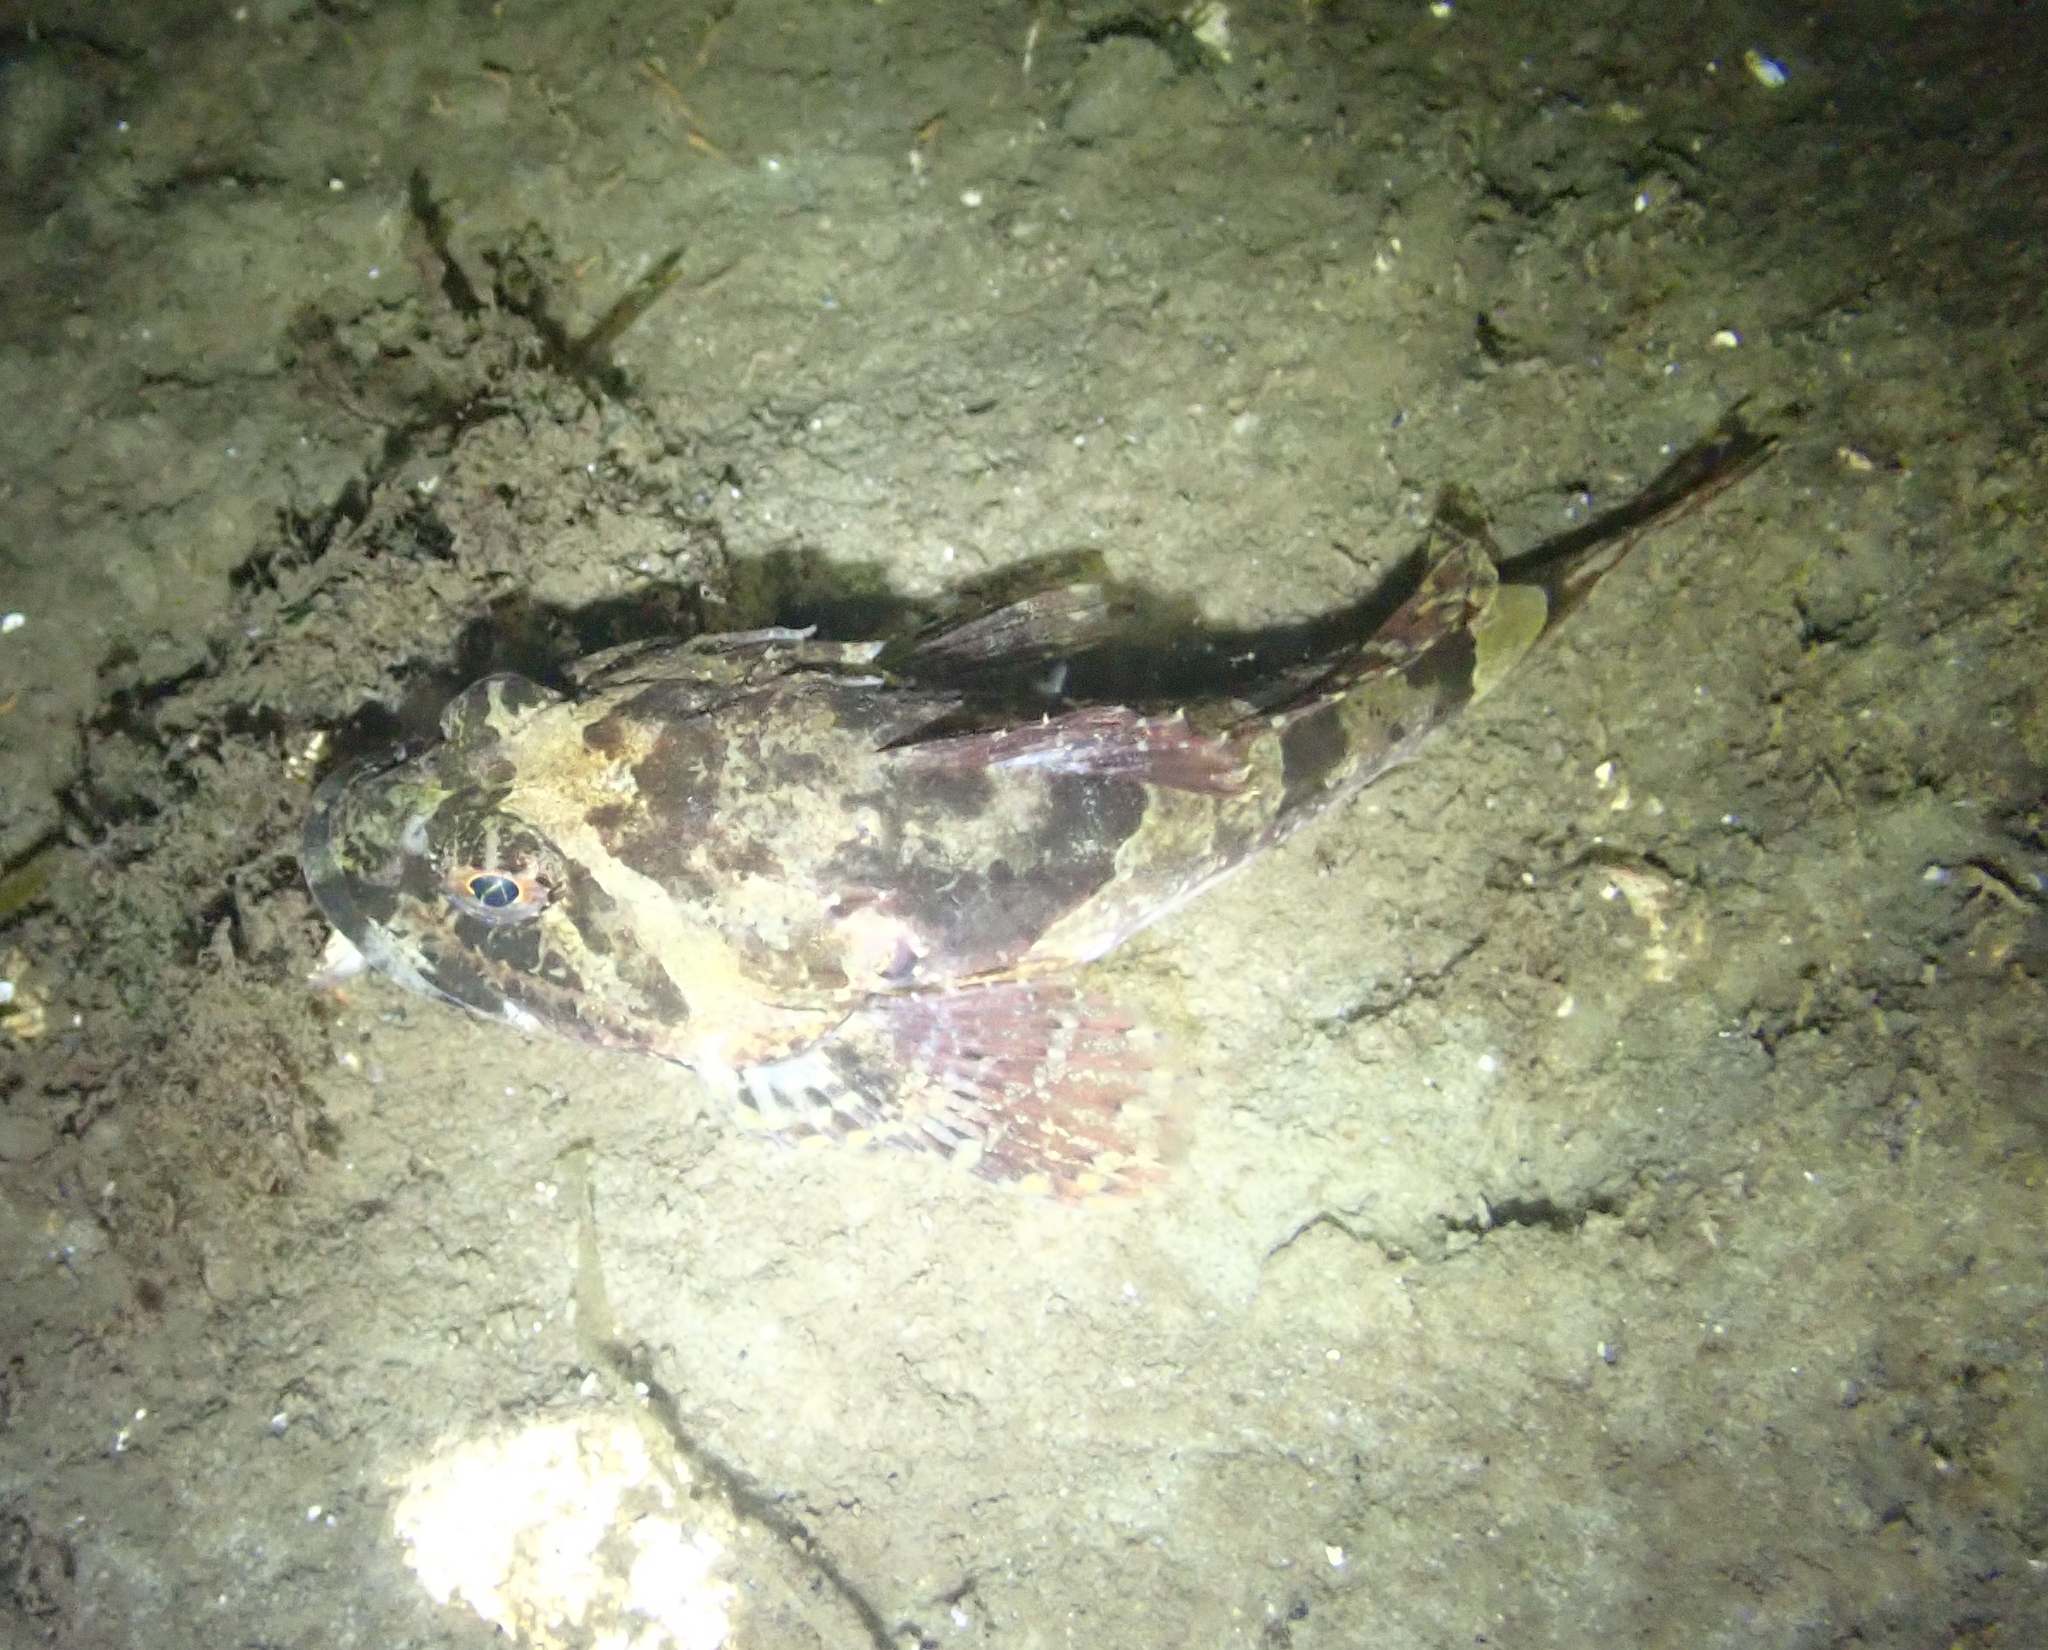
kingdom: Animalia
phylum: Chordata
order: Scorpaeniformes
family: Cottidae
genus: Myoxocephalus
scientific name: Myoxocephalus scorpius
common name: Shorthorn sculpin
